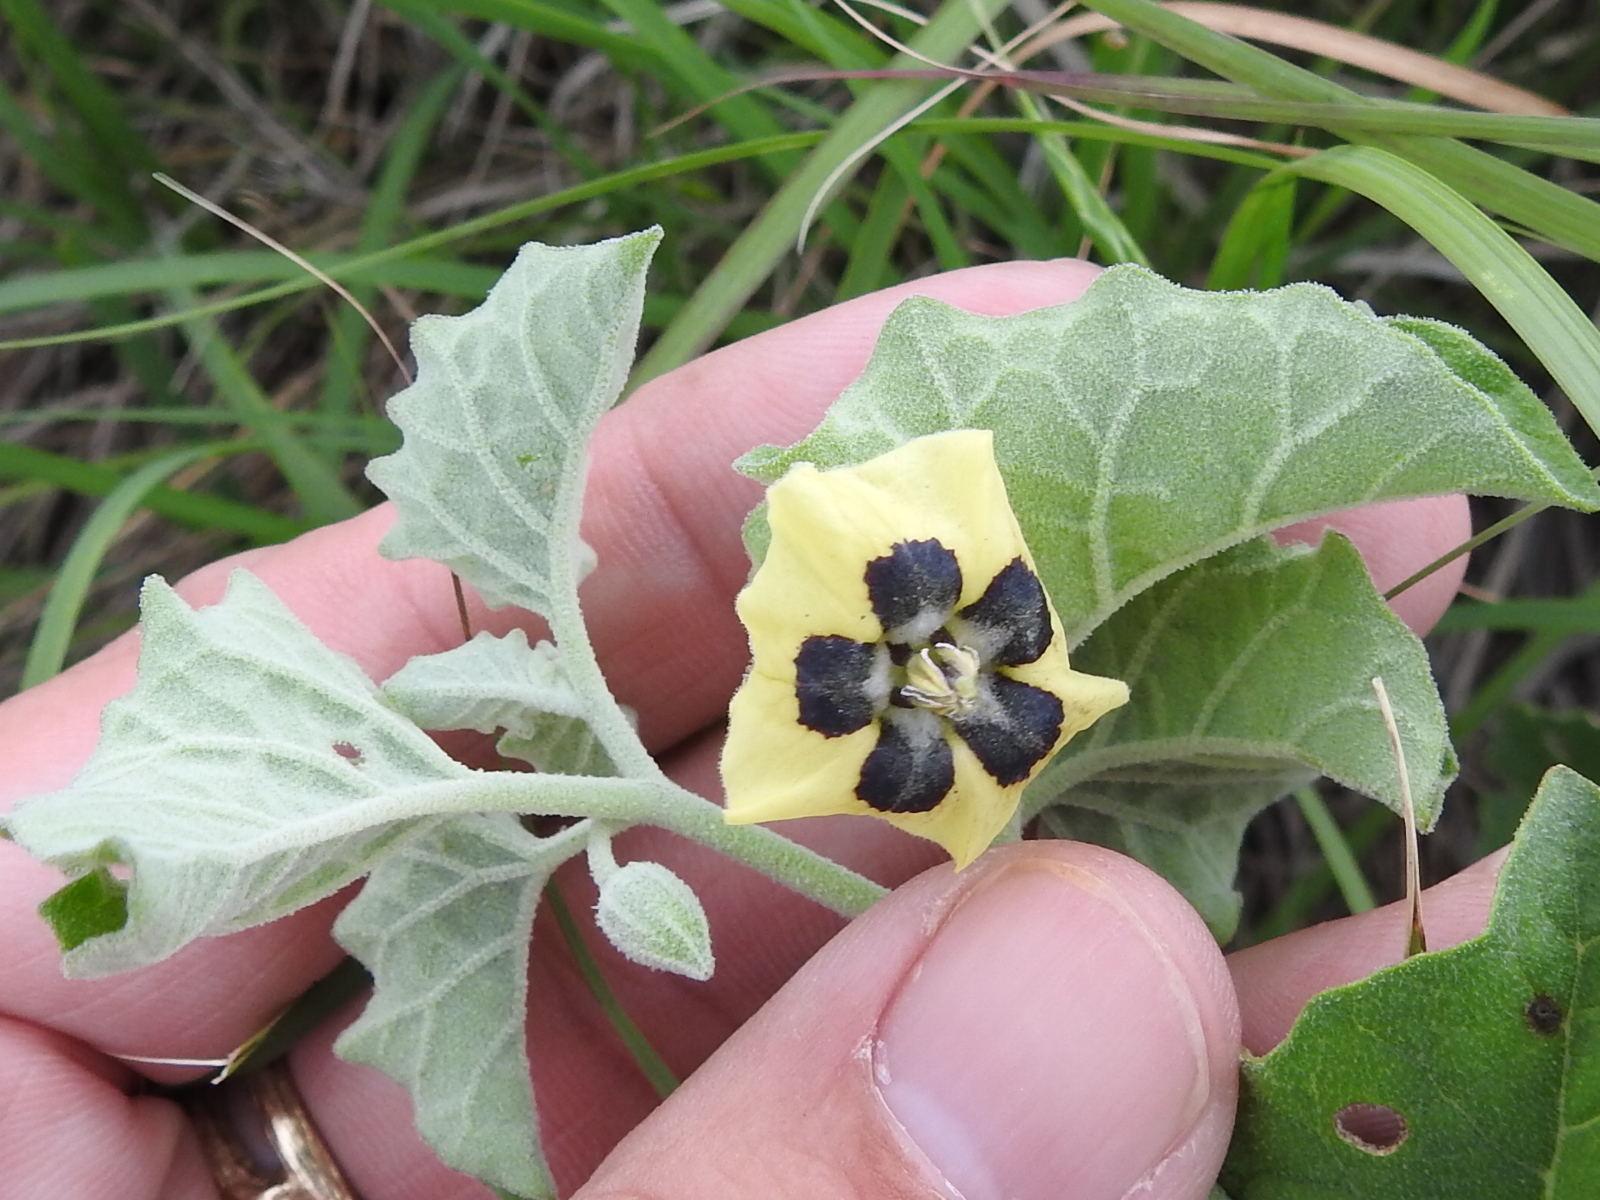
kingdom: Plantae
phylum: Tracheophyta
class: Magnoliopsida
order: Solanales
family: Solanaceae
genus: Physalis
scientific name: Physalis cinerascens
